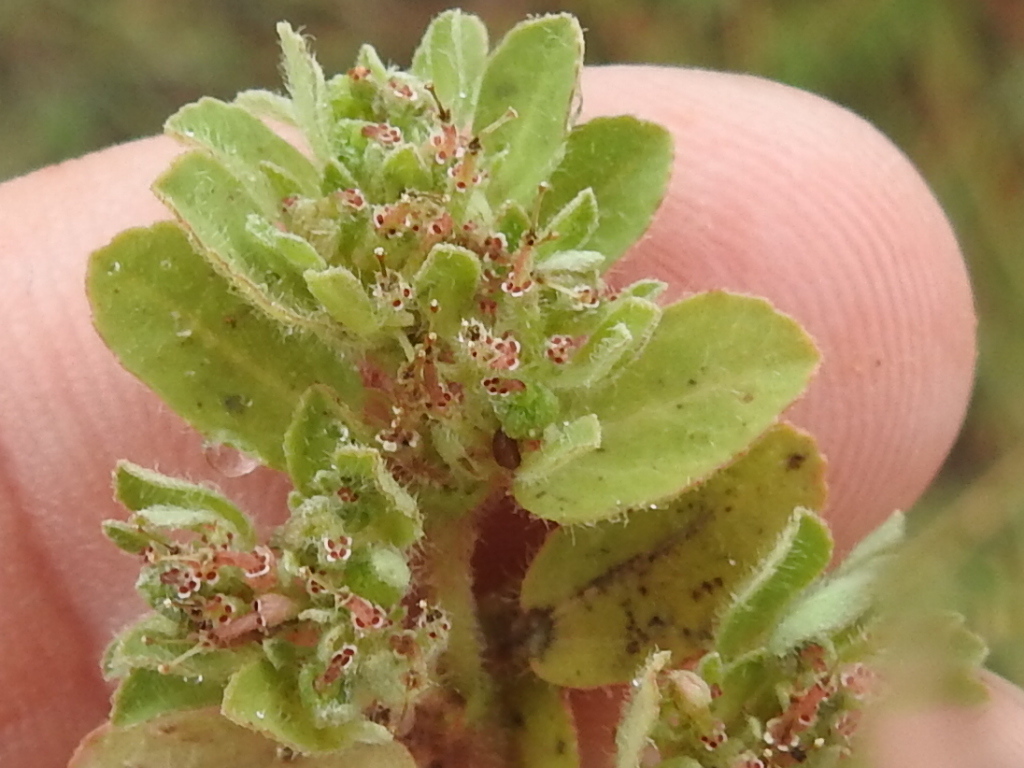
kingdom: Plantae
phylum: Tracheophyta
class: Magnoliopsida
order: Malpighiales
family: Euphorbiaceae
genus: Euphorbia
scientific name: Euphorbia stictospora
